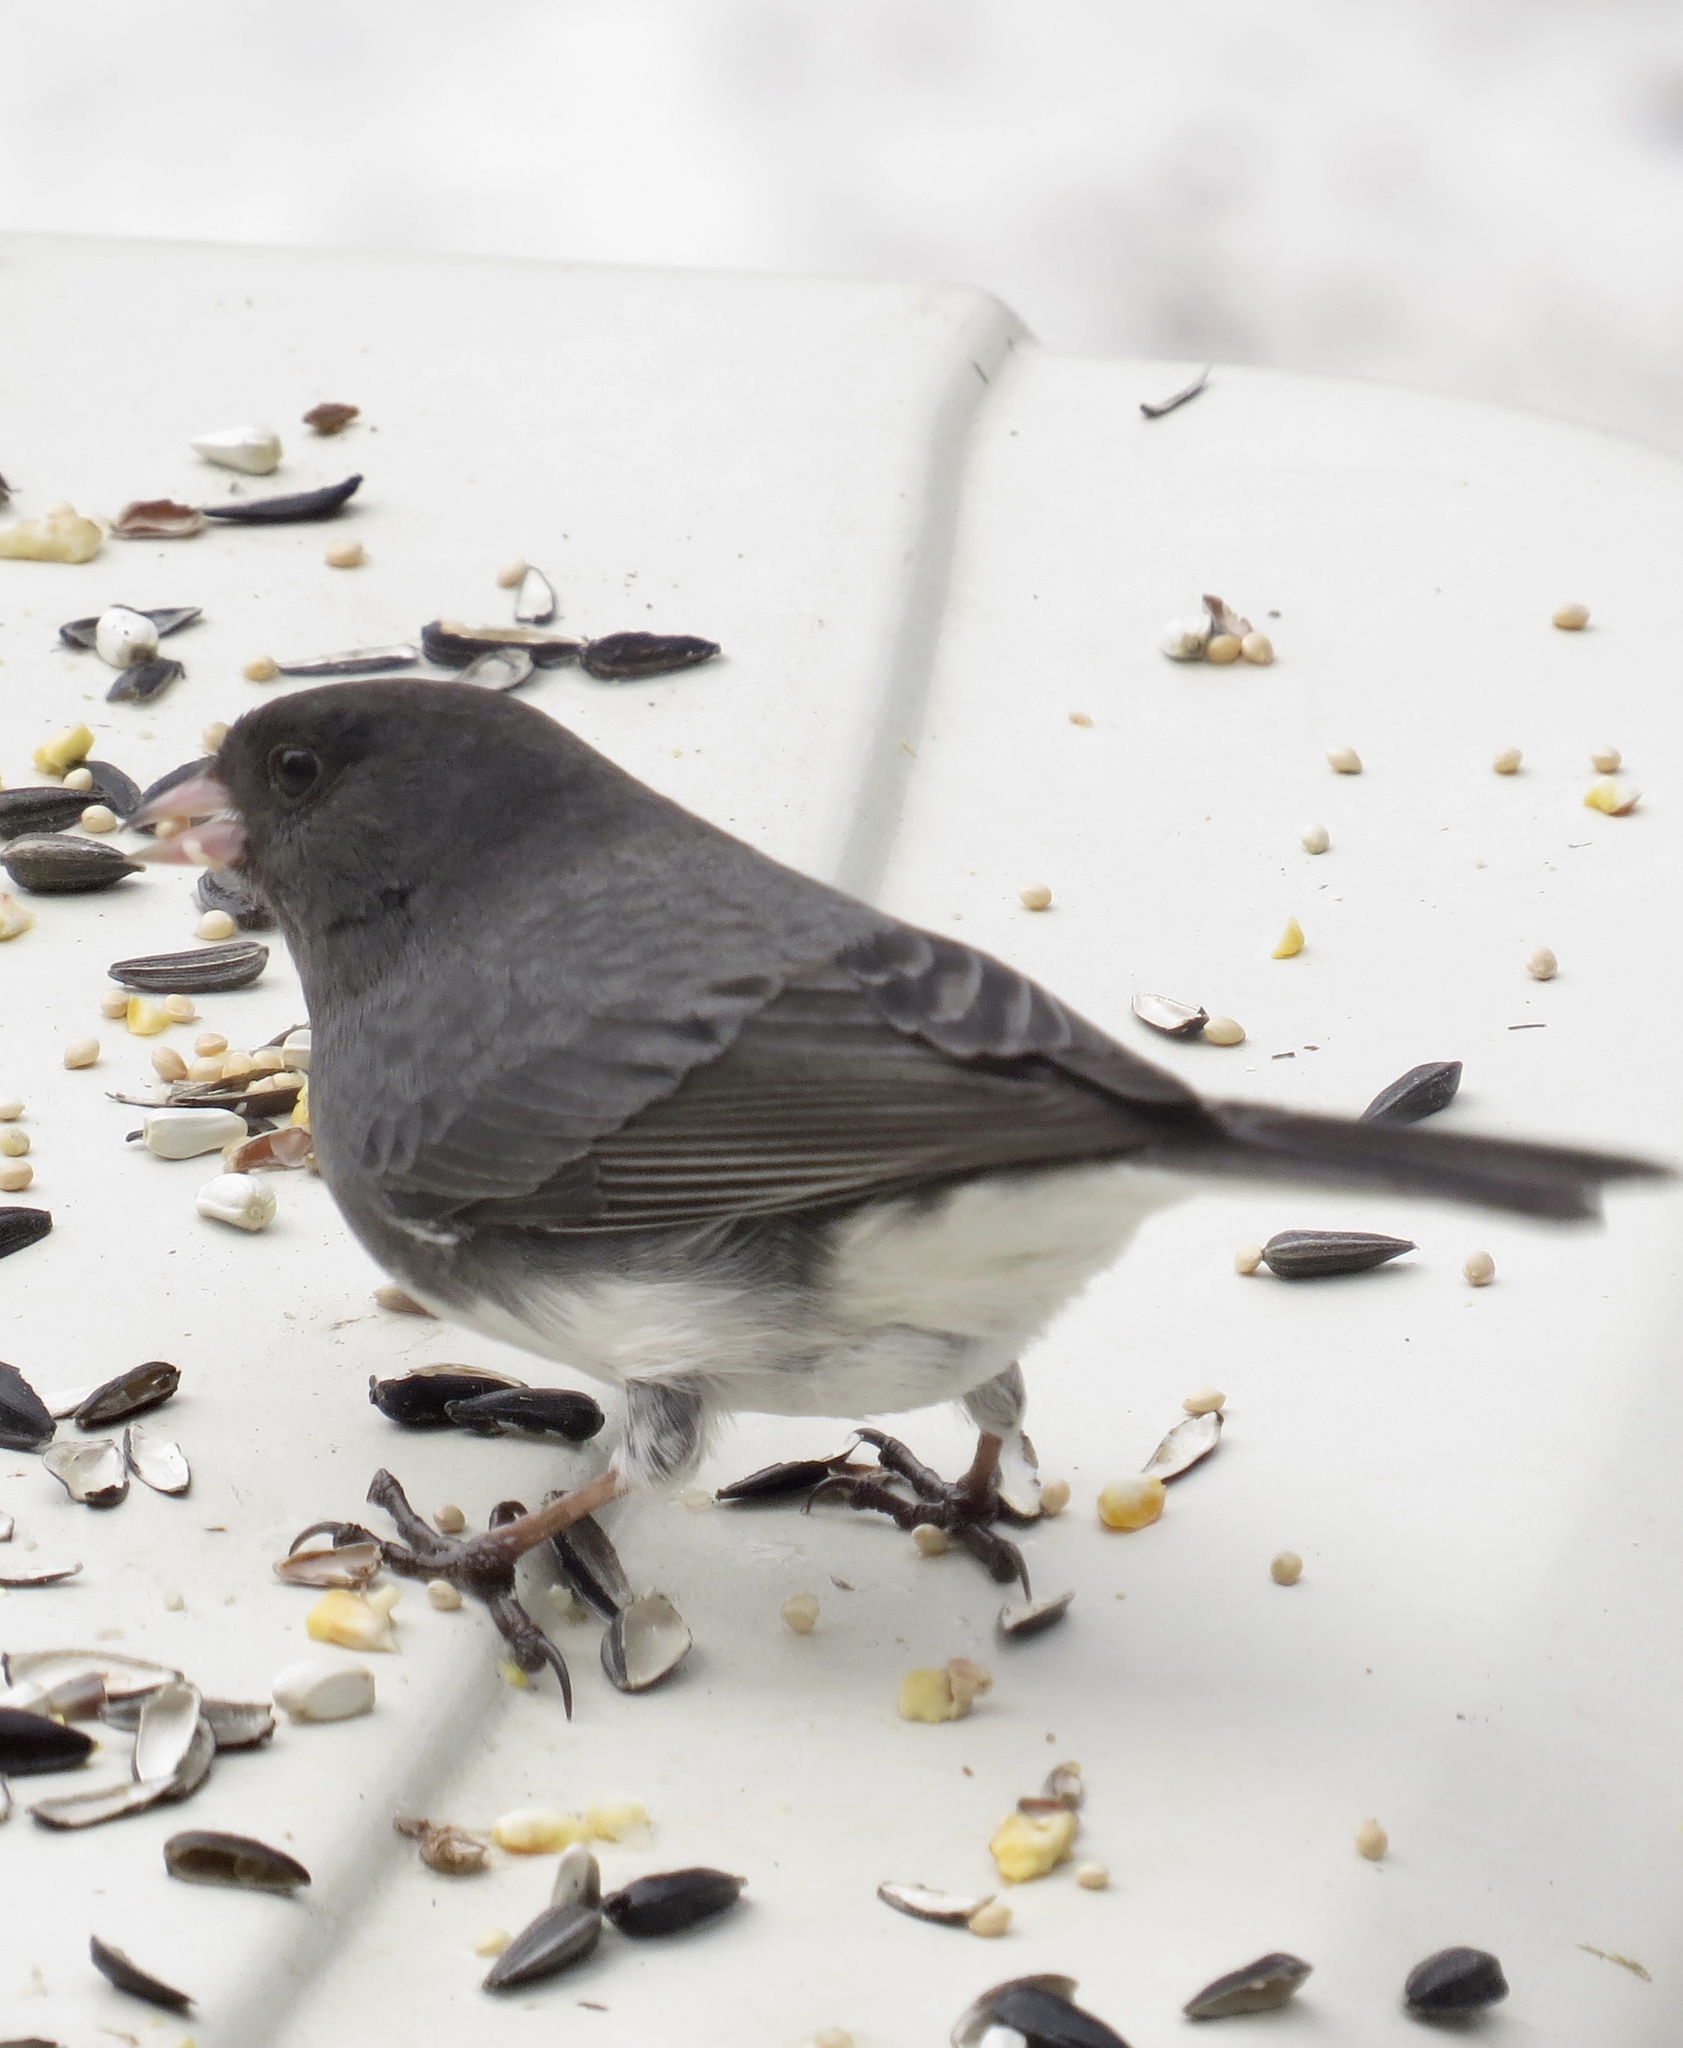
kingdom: Animalia
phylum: Chordata
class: Aves
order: Passeriformes
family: Passerellidae
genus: Junco
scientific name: Junco hyemalis
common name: Dark-eyed junco
